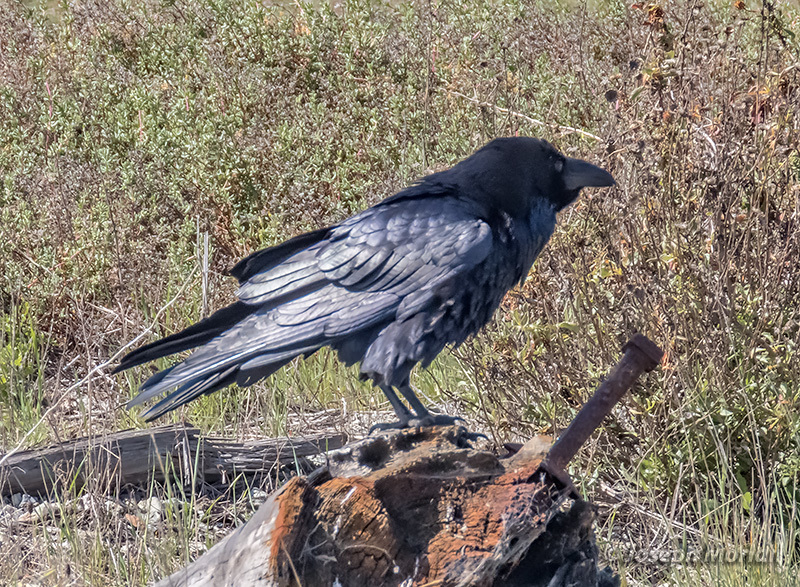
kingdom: Animalia
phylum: Chordata
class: Aves
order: Passeriformes
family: Corvidae
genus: Corvus
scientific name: Corvus corax
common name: Common raven
